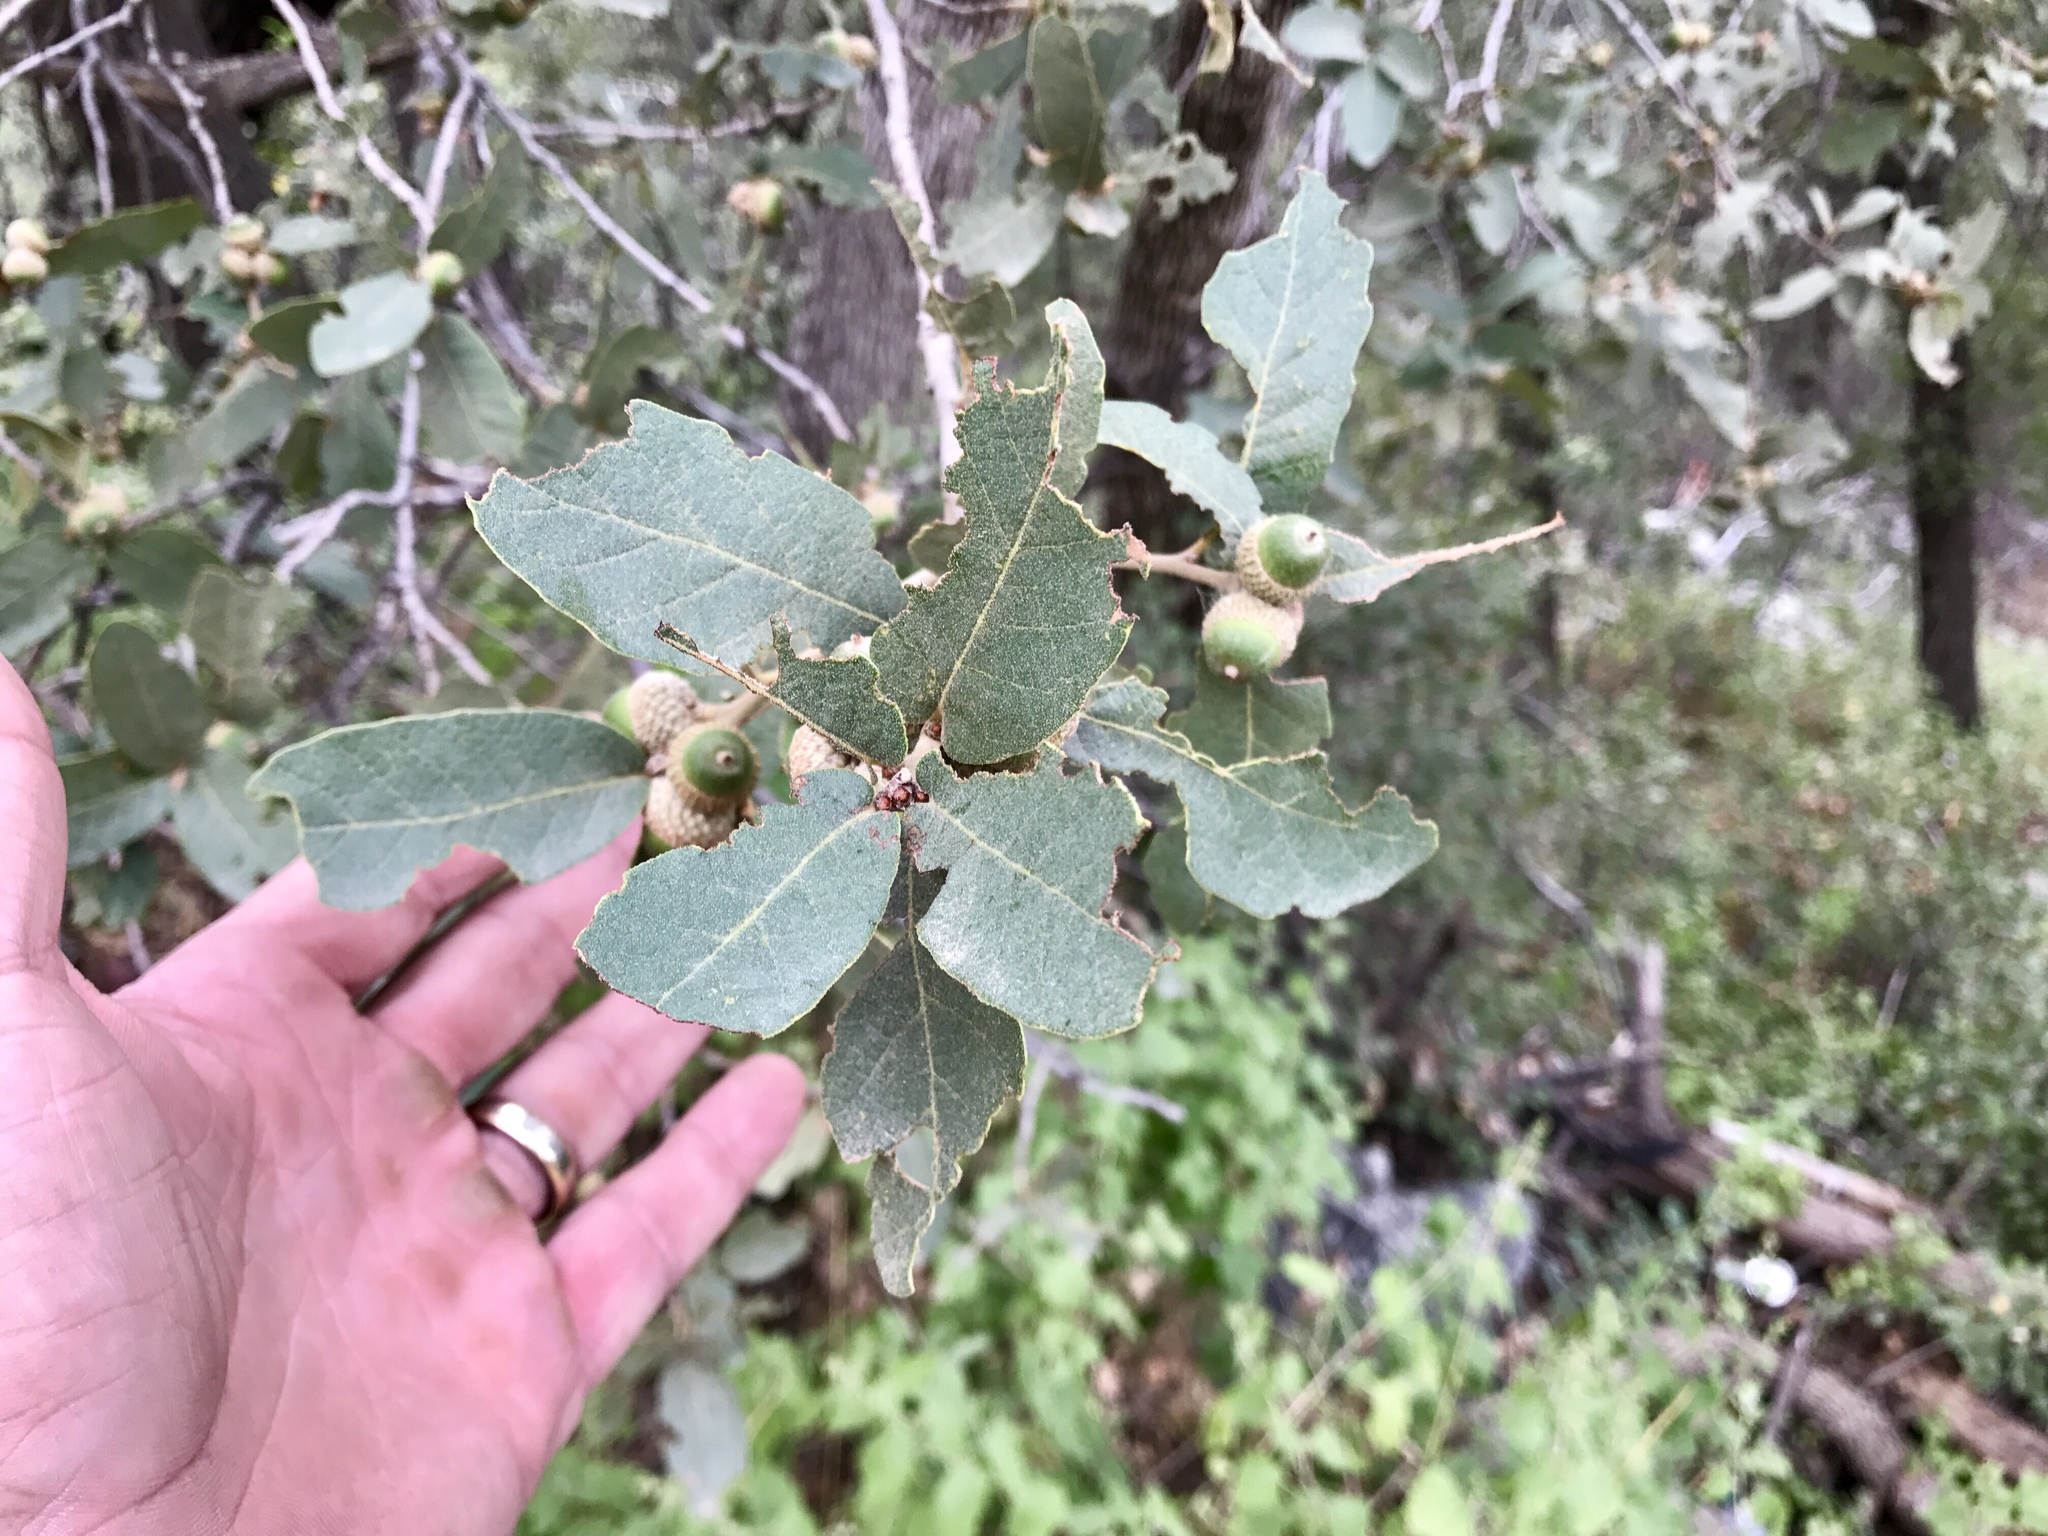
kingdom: Plantae
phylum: Tracheophyta
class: Magnoliopsida
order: Fagales
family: Fagaceae
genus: Quercus
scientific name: Quercus arizonica
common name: Arizona white oak
